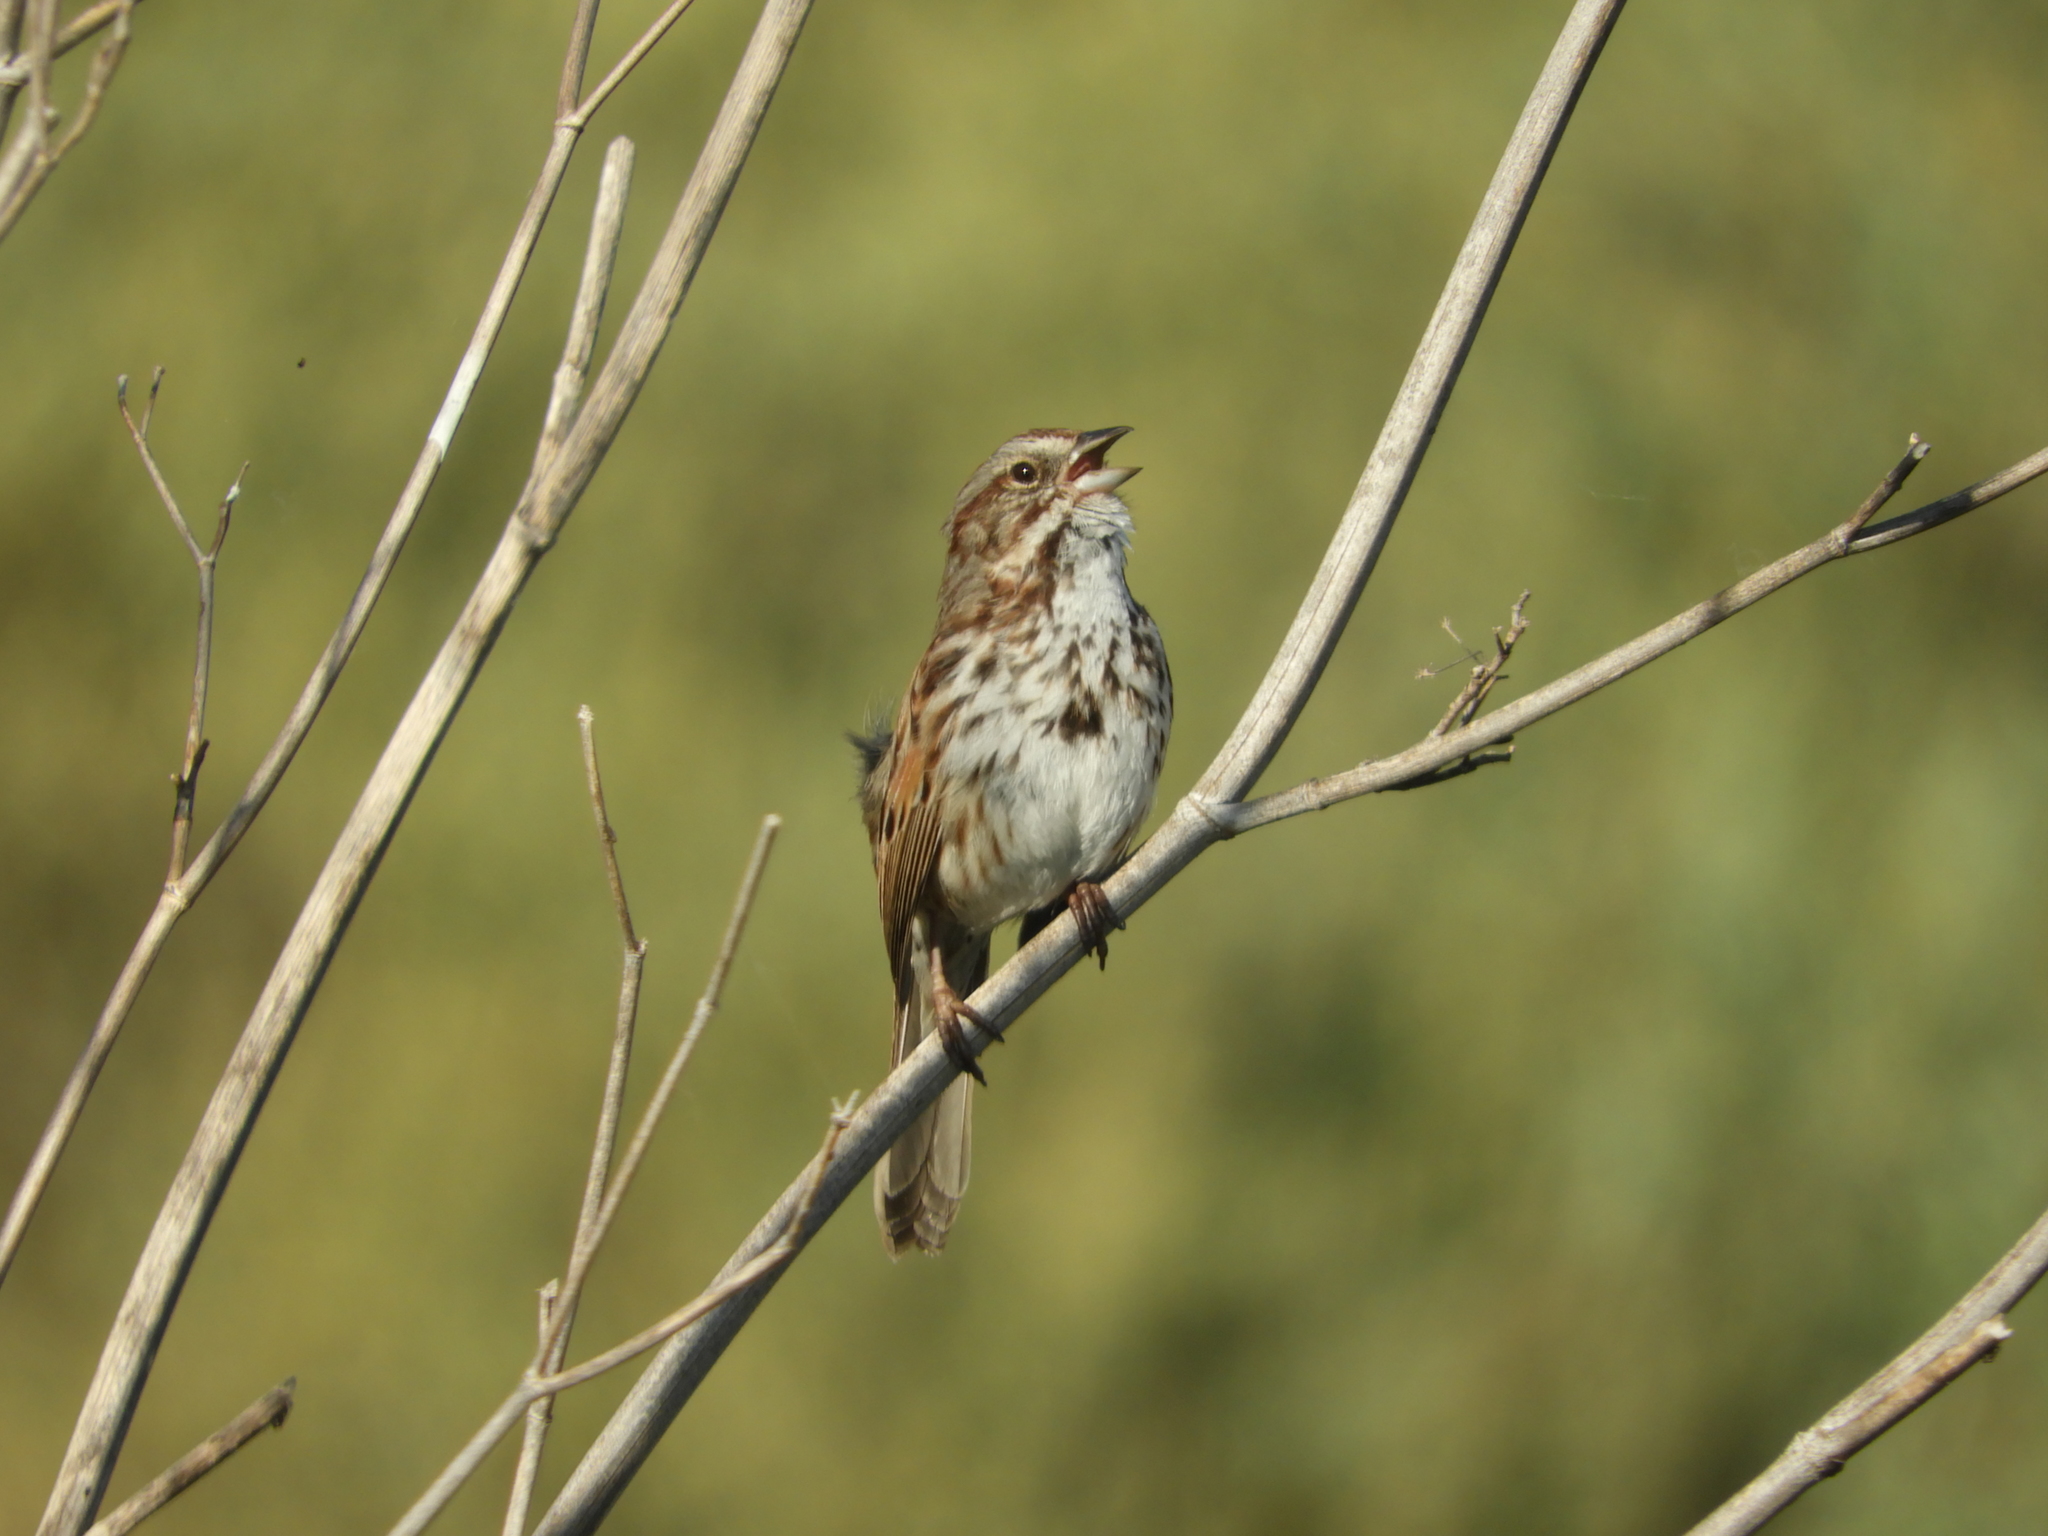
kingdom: Animalia
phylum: Chordata
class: Aves
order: Passeriformes
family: Passerellidae
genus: Melospiza
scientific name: Melospiza melodia
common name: Song sparrow
